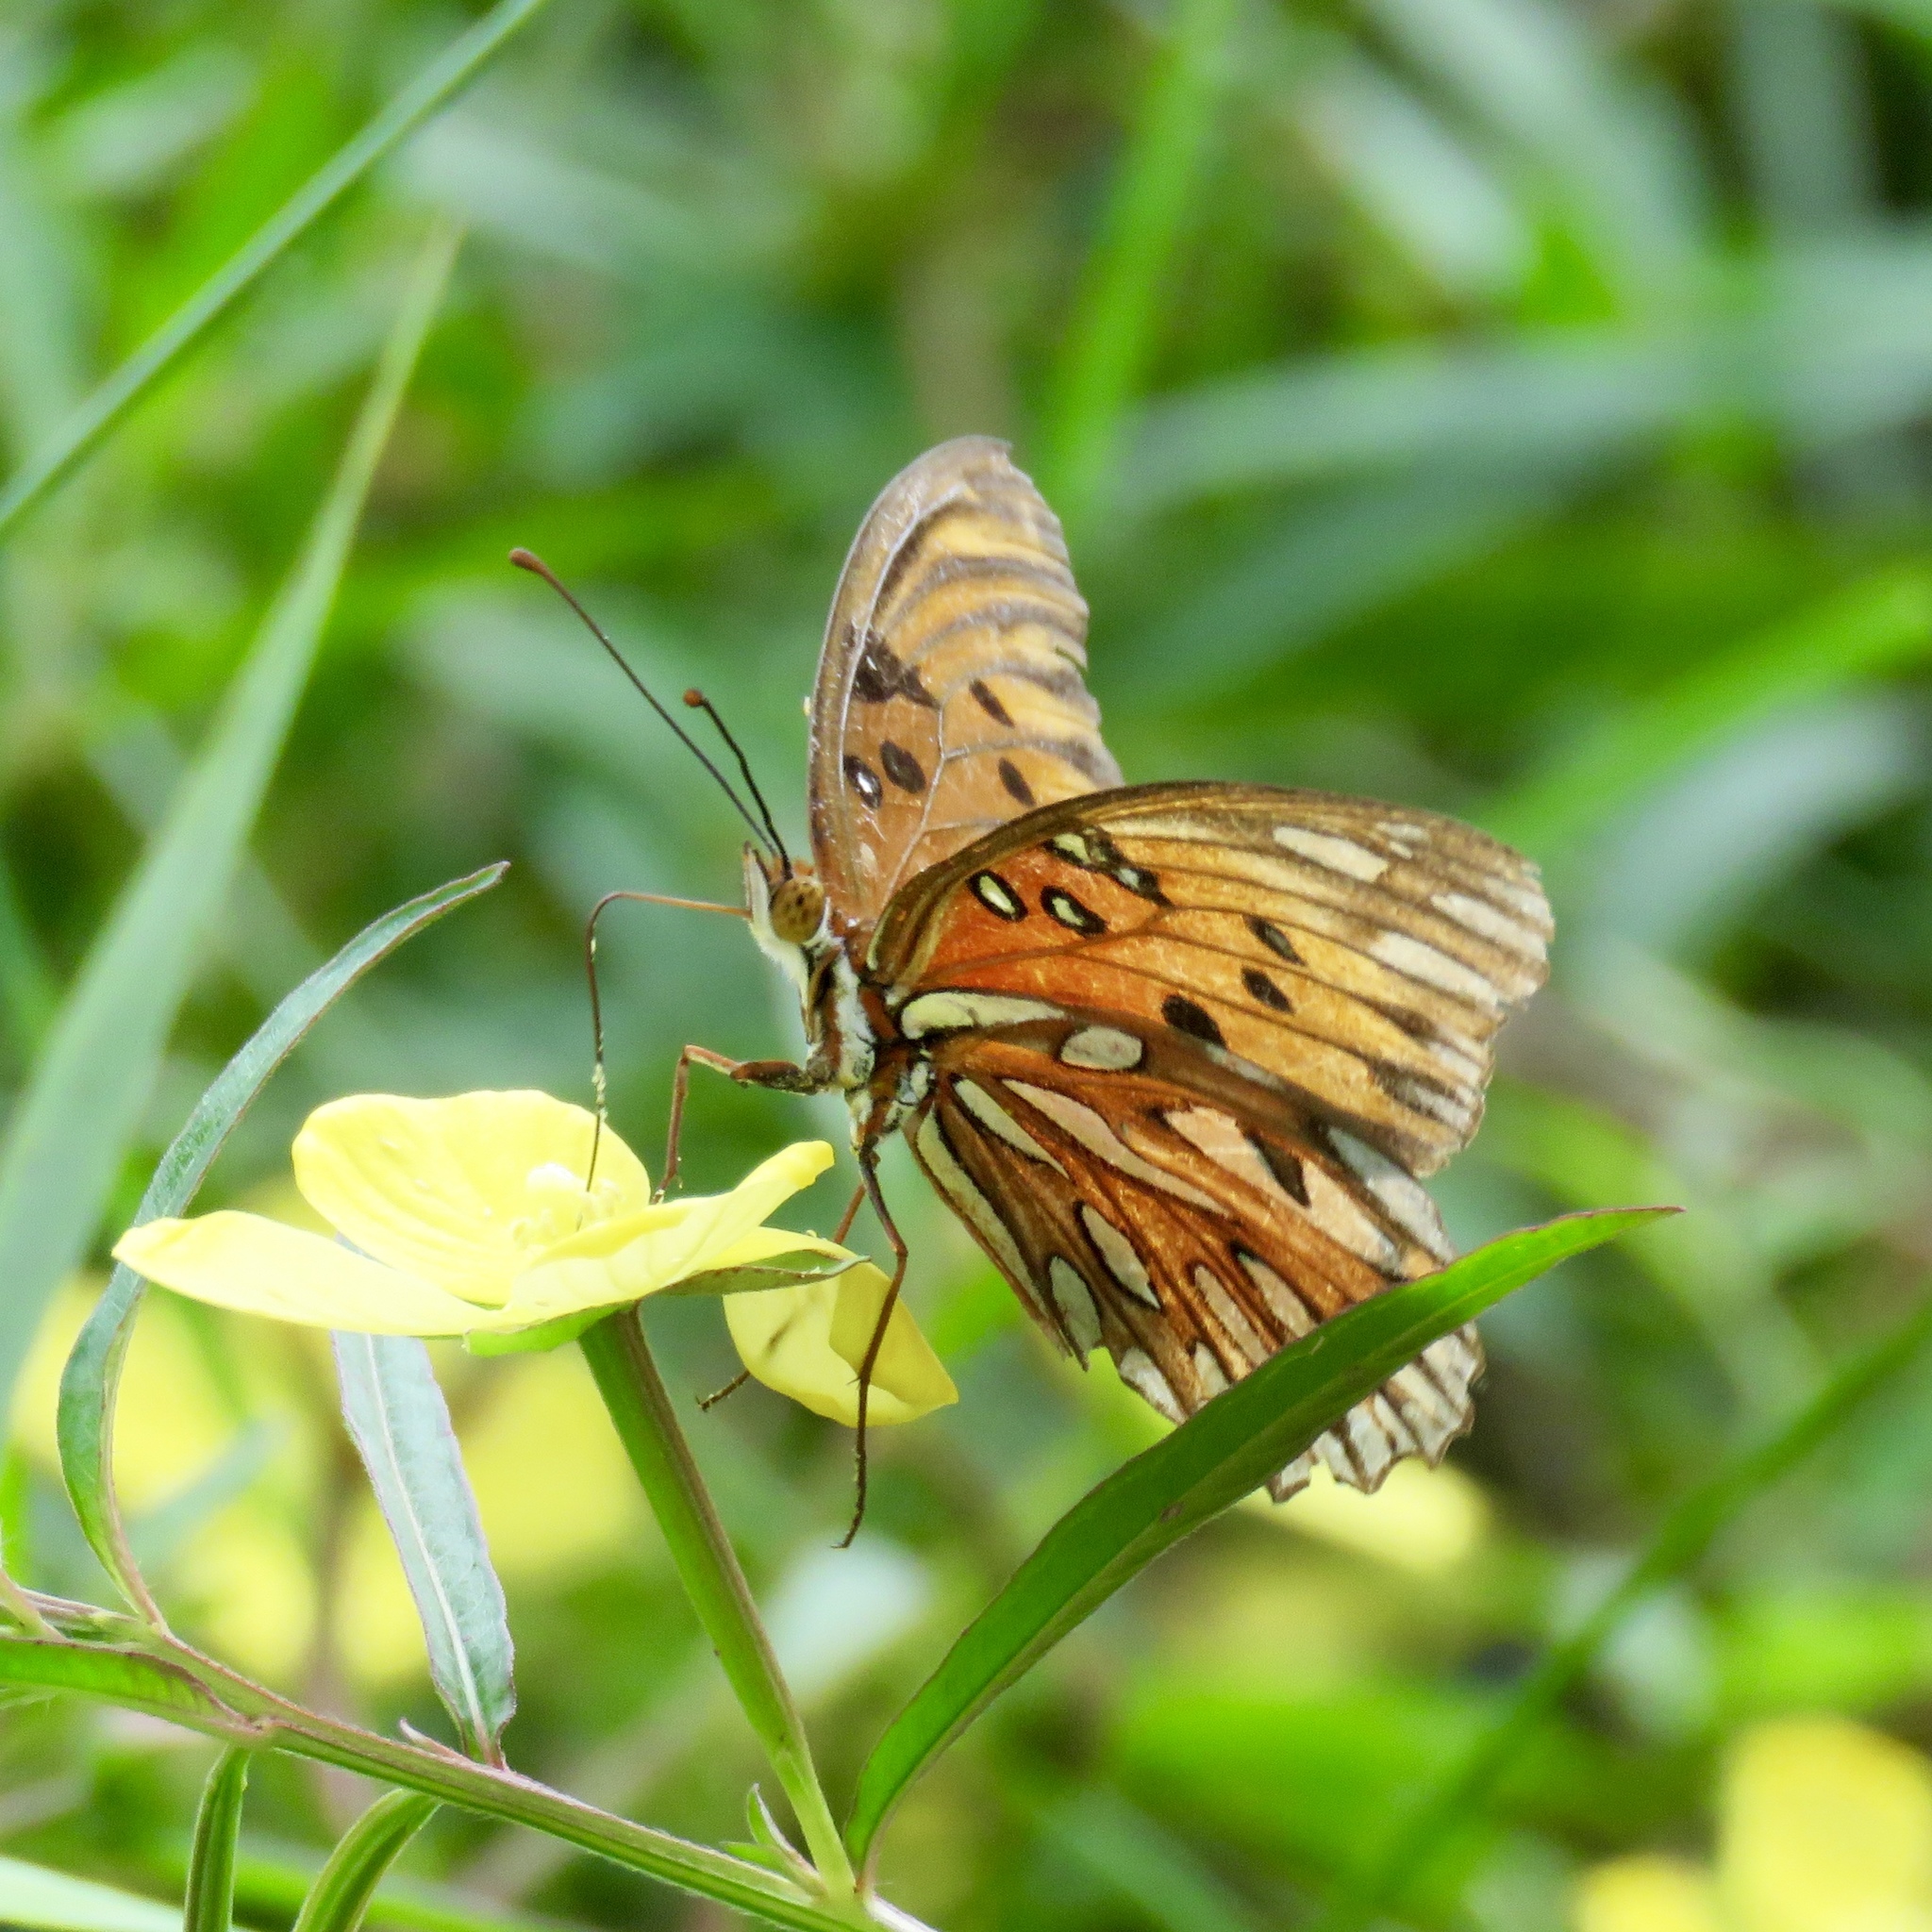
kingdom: Animalia
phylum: Arthropoda
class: Insecta
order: Lepidoptera
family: Nymphalidae
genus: Dione
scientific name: Dione vanillae
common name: Gulf fritillary
